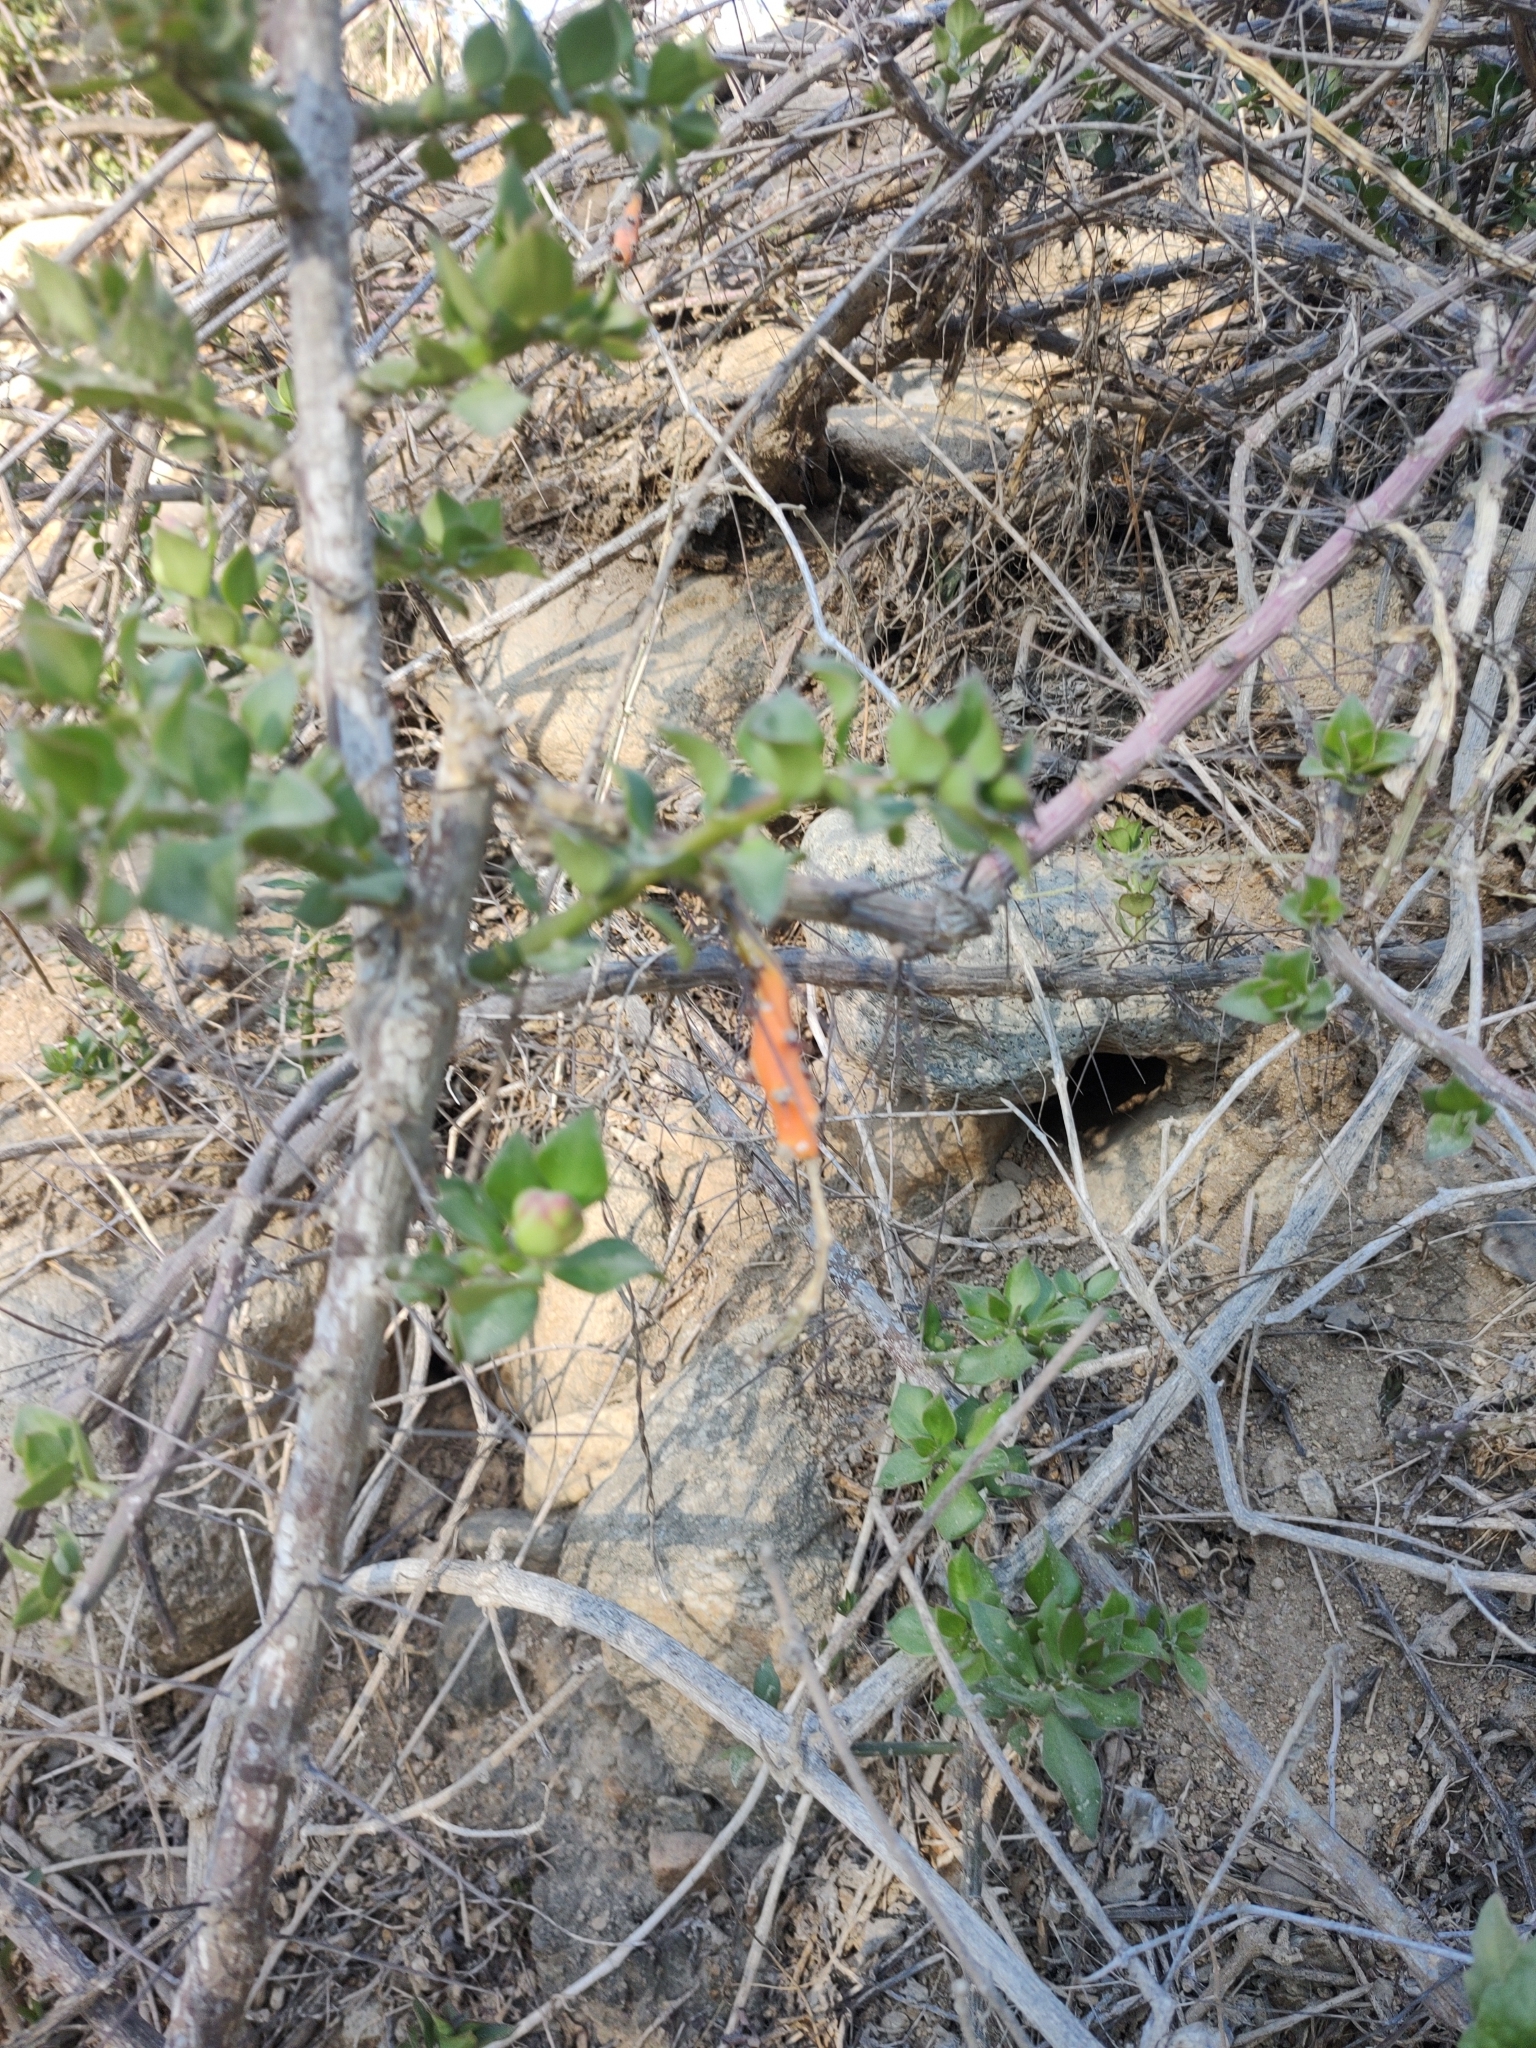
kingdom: Plantae
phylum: Tracheophyta
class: Magnoliopsida
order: Caryophyllales
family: Cactaceae
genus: Pereskiopsis
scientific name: Pereskiopsis porteri
